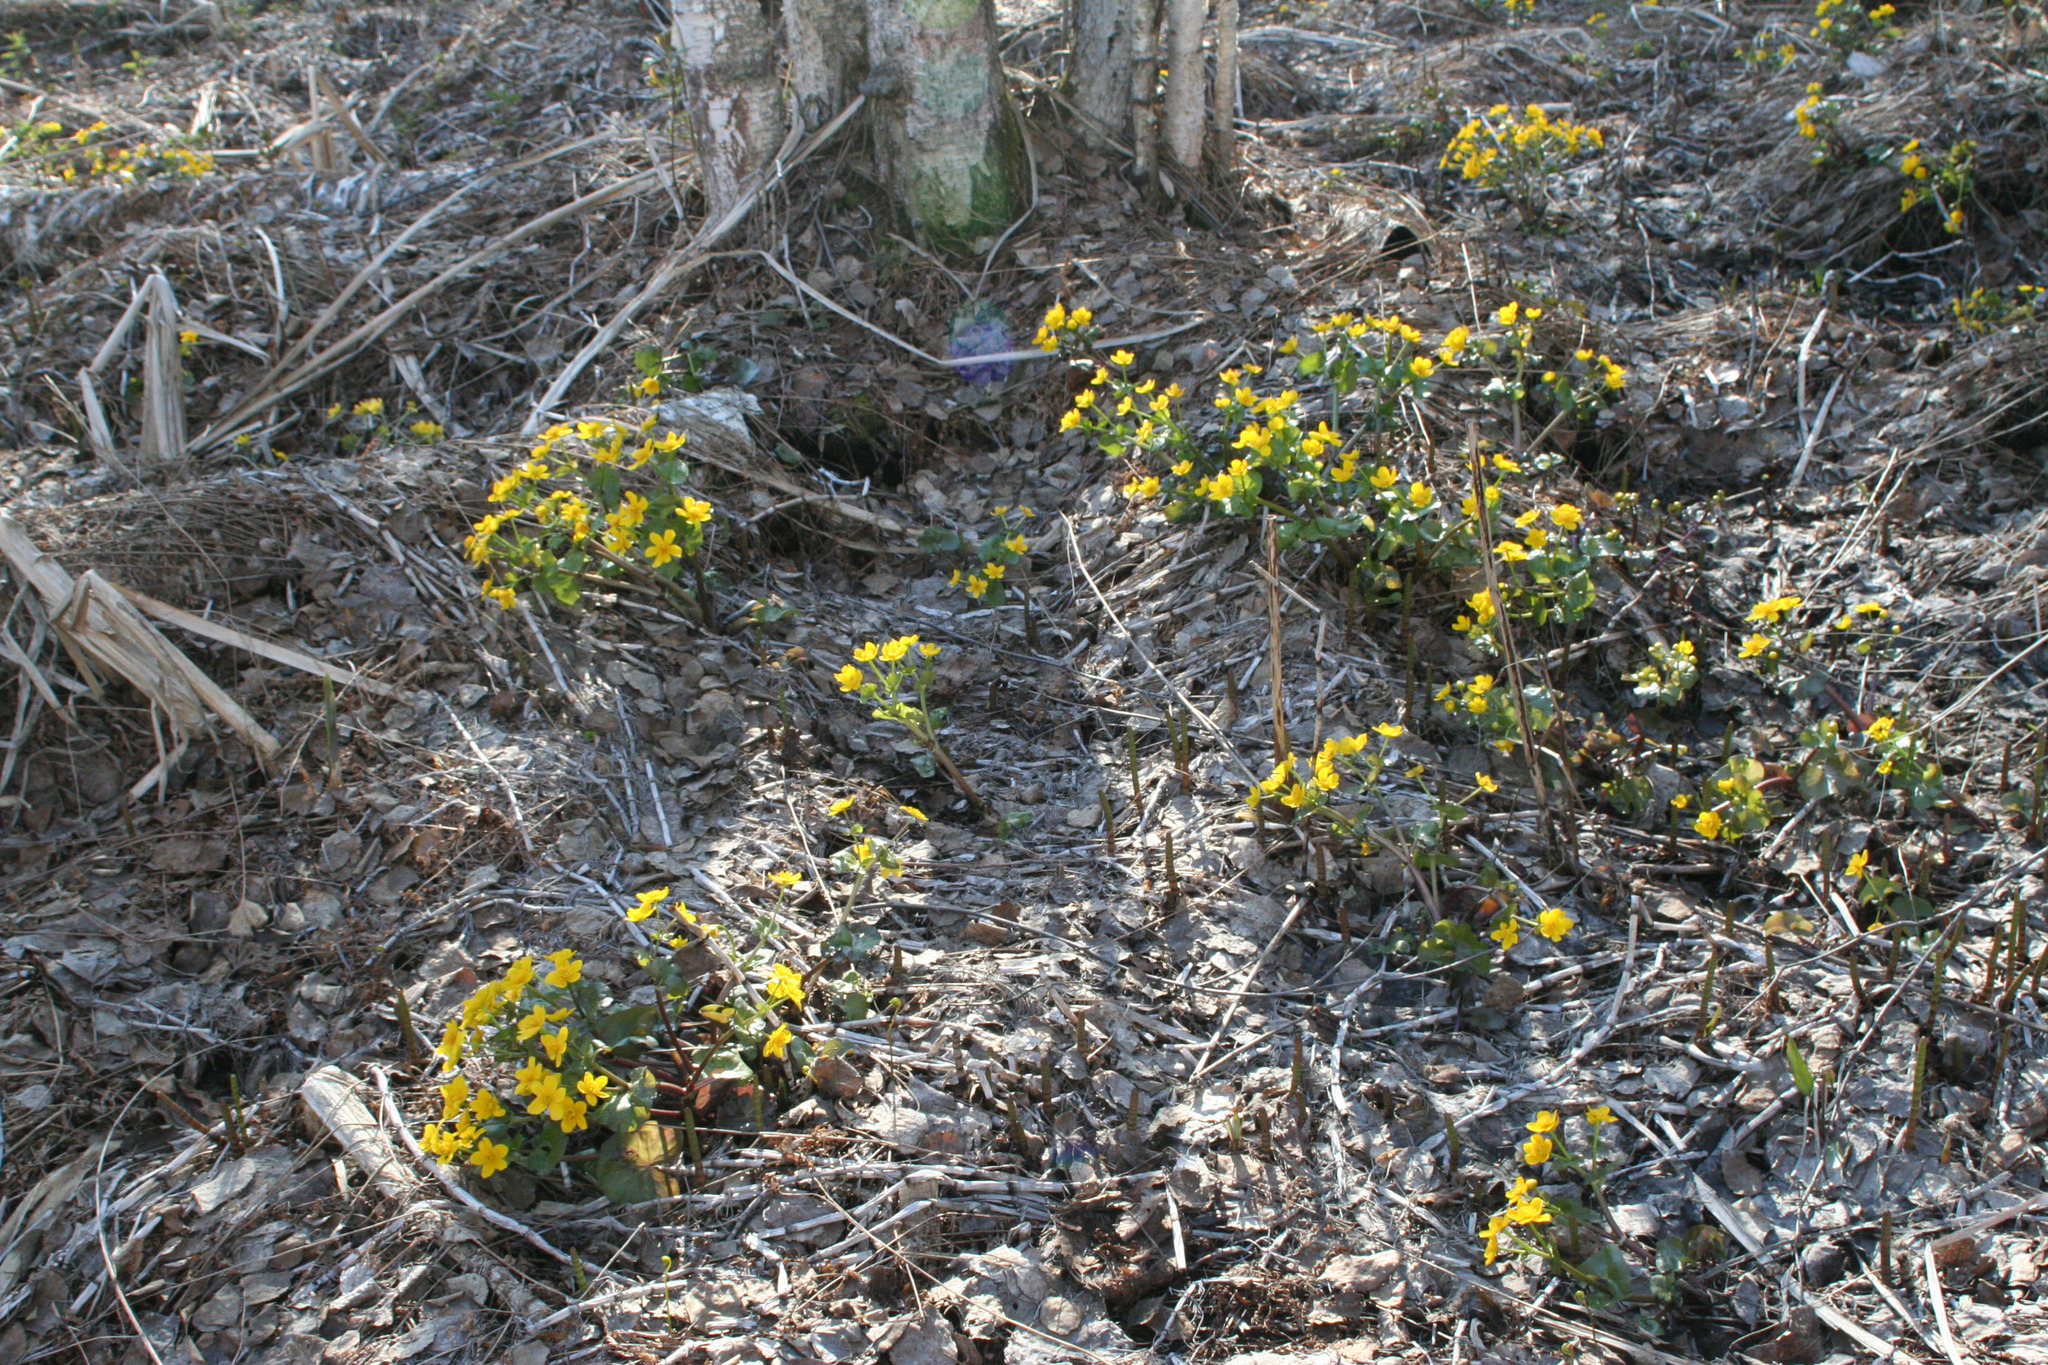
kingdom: Plantae
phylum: Tracheophyta
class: Magnoliopsida
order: Ranunculales
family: Ranunculaceae
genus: Caltha
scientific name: Caltha palustris
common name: Marsh marigold
